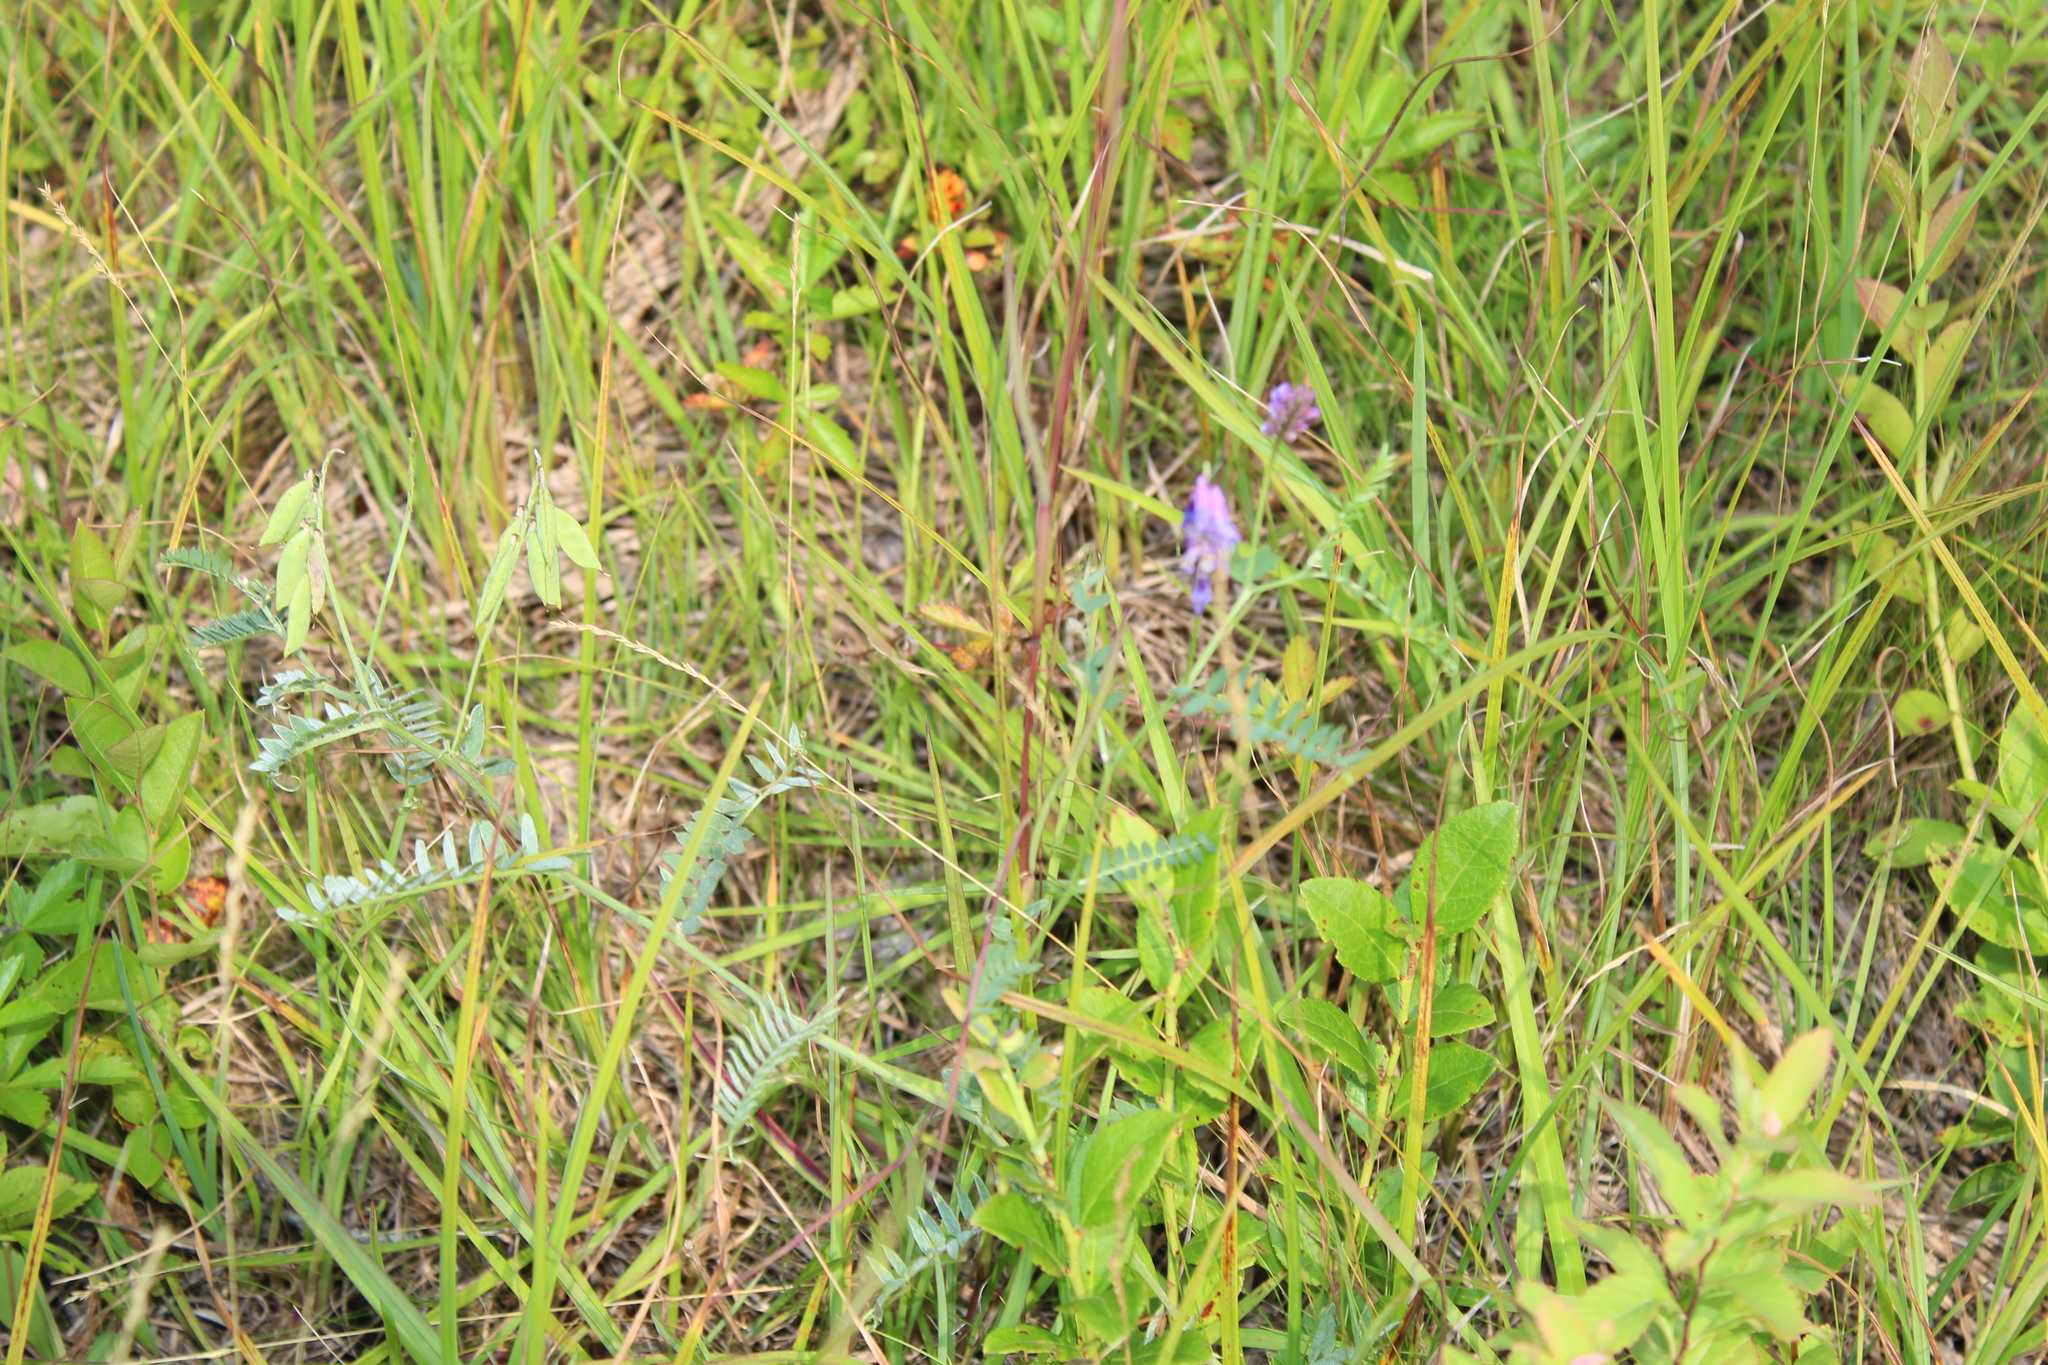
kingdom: Plantae
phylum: Tracheophyta
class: Magnoliopsida
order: Fabales
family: Fabaceae
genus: Vicia
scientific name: Vicia cracca
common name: Bird vetch
